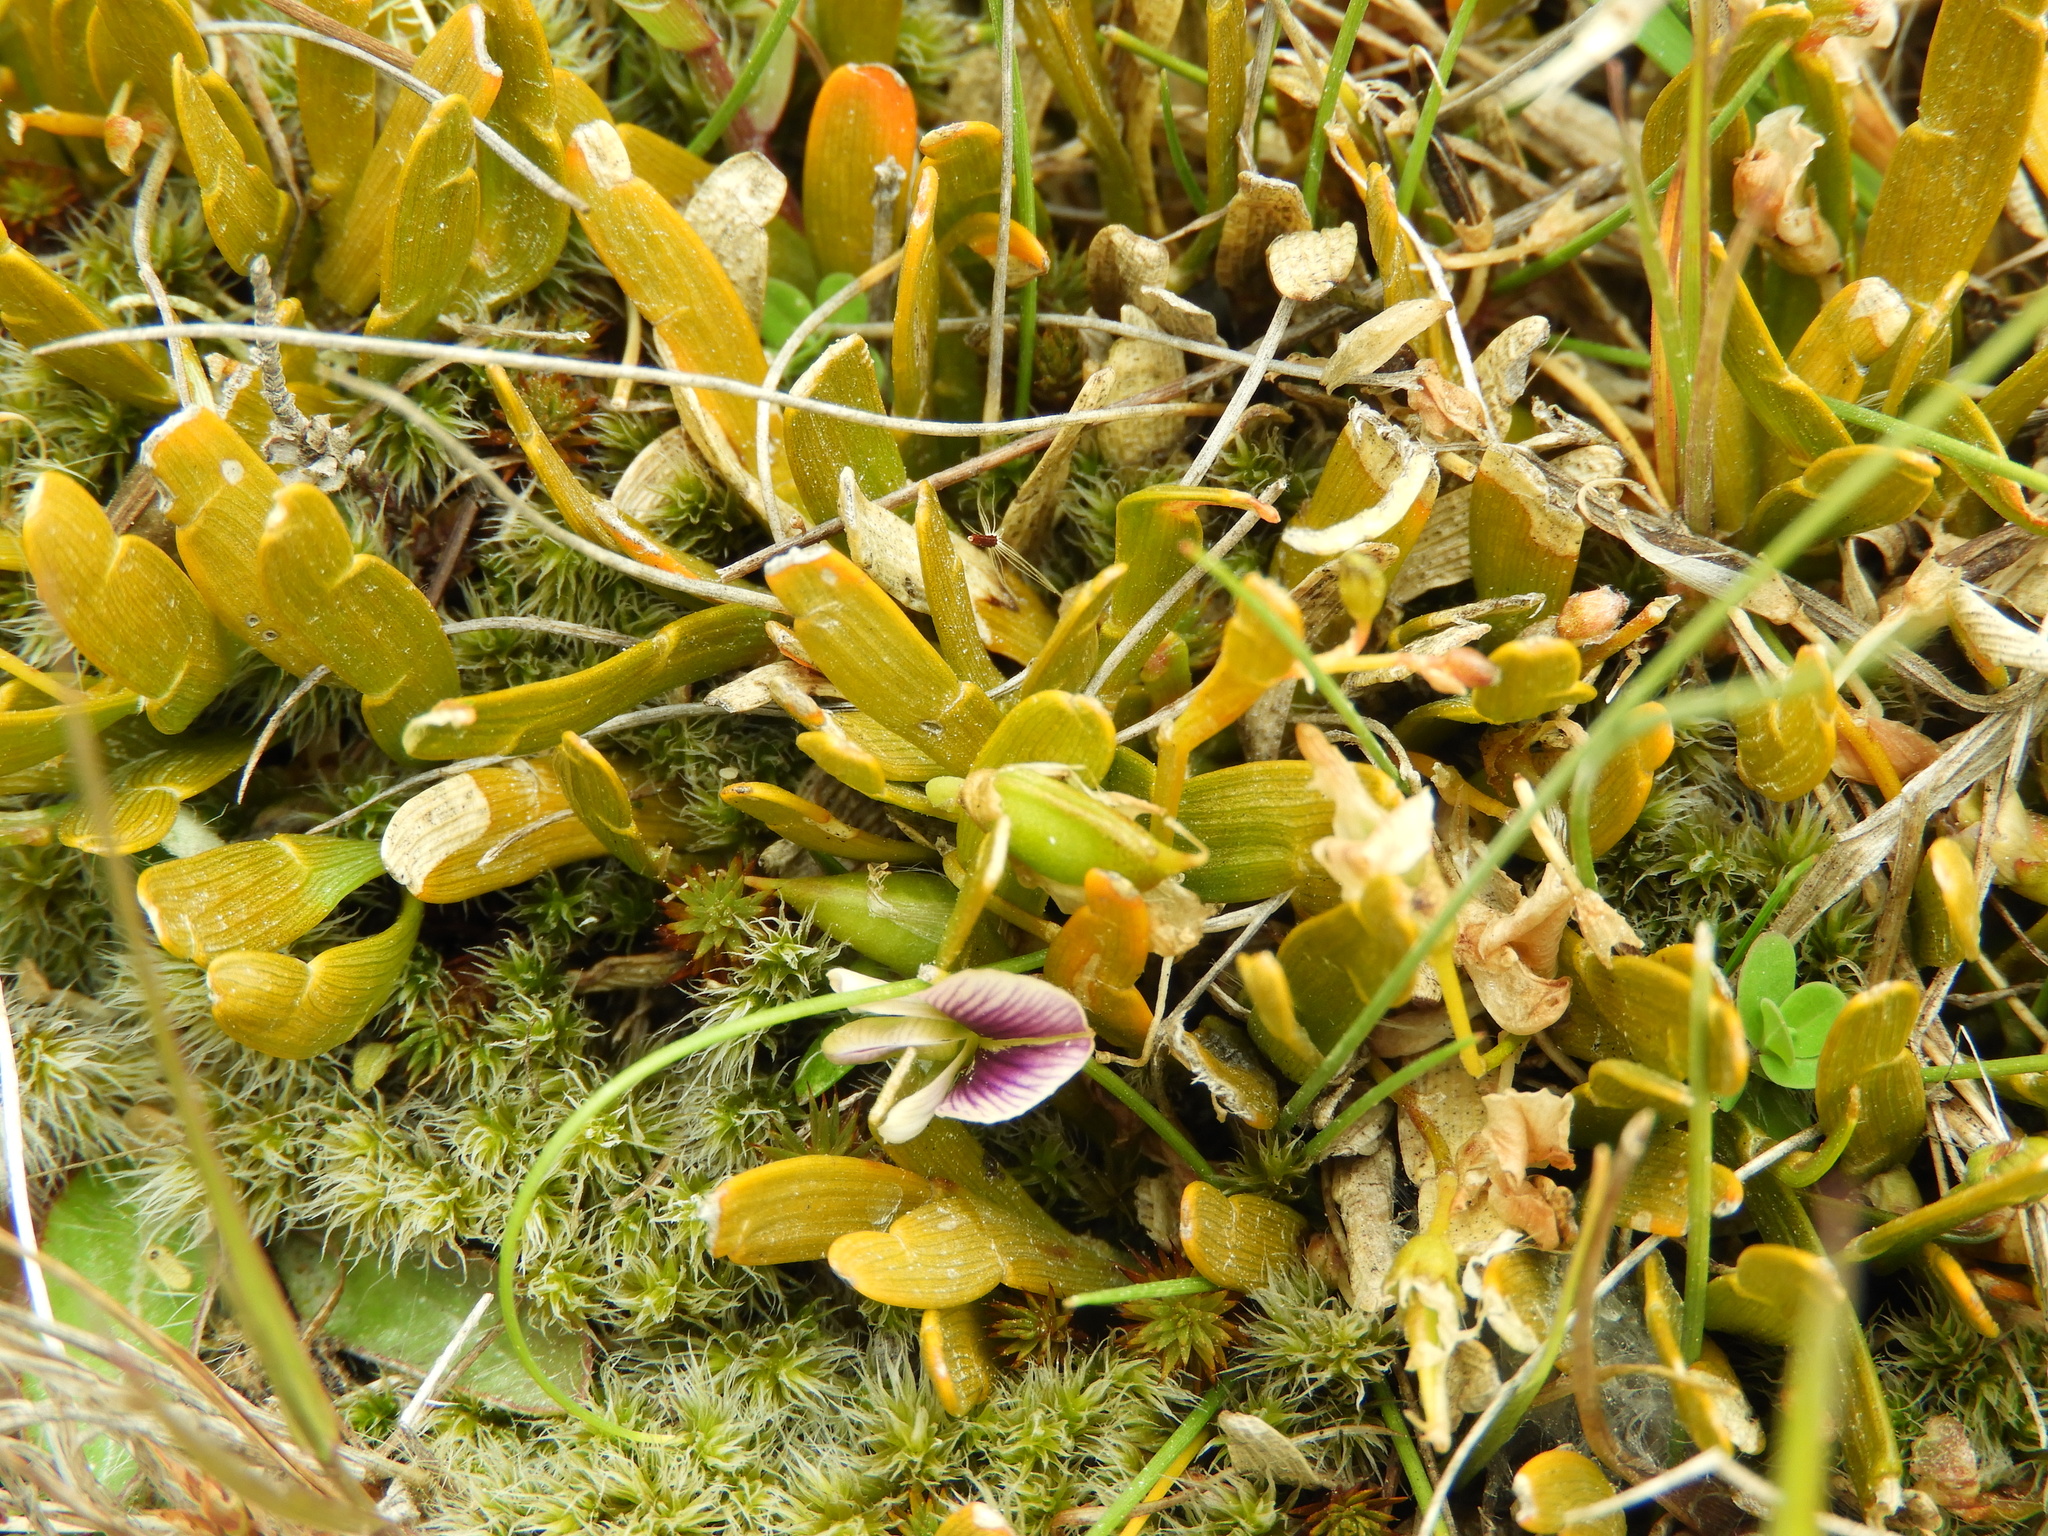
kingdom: Plantae
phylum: Tracheophyta
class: Magnoliopsida
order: Fabales
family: Fabaceae
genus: Carmichaelia
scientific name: Carmichaelia corrugata
